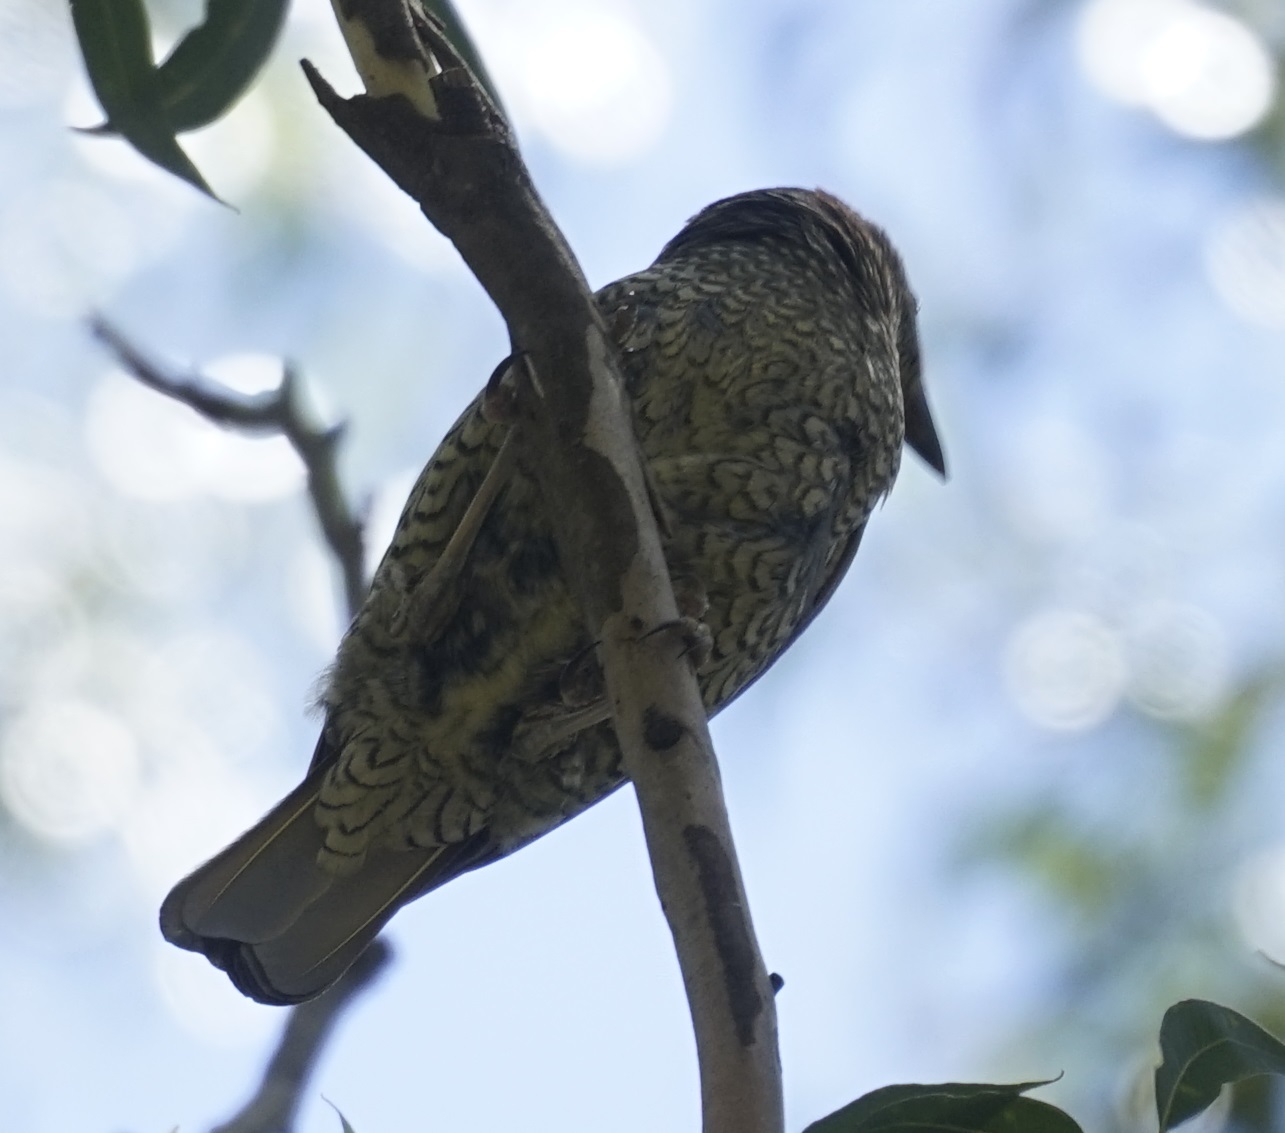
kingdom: Animalia
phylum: Chordata
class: Aves
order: Passeriformes
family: Ptilonorhynchidae
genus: Ptilonorhynchus
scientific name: Ptilonorhynchus violaceus
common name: Satin bowerbird
